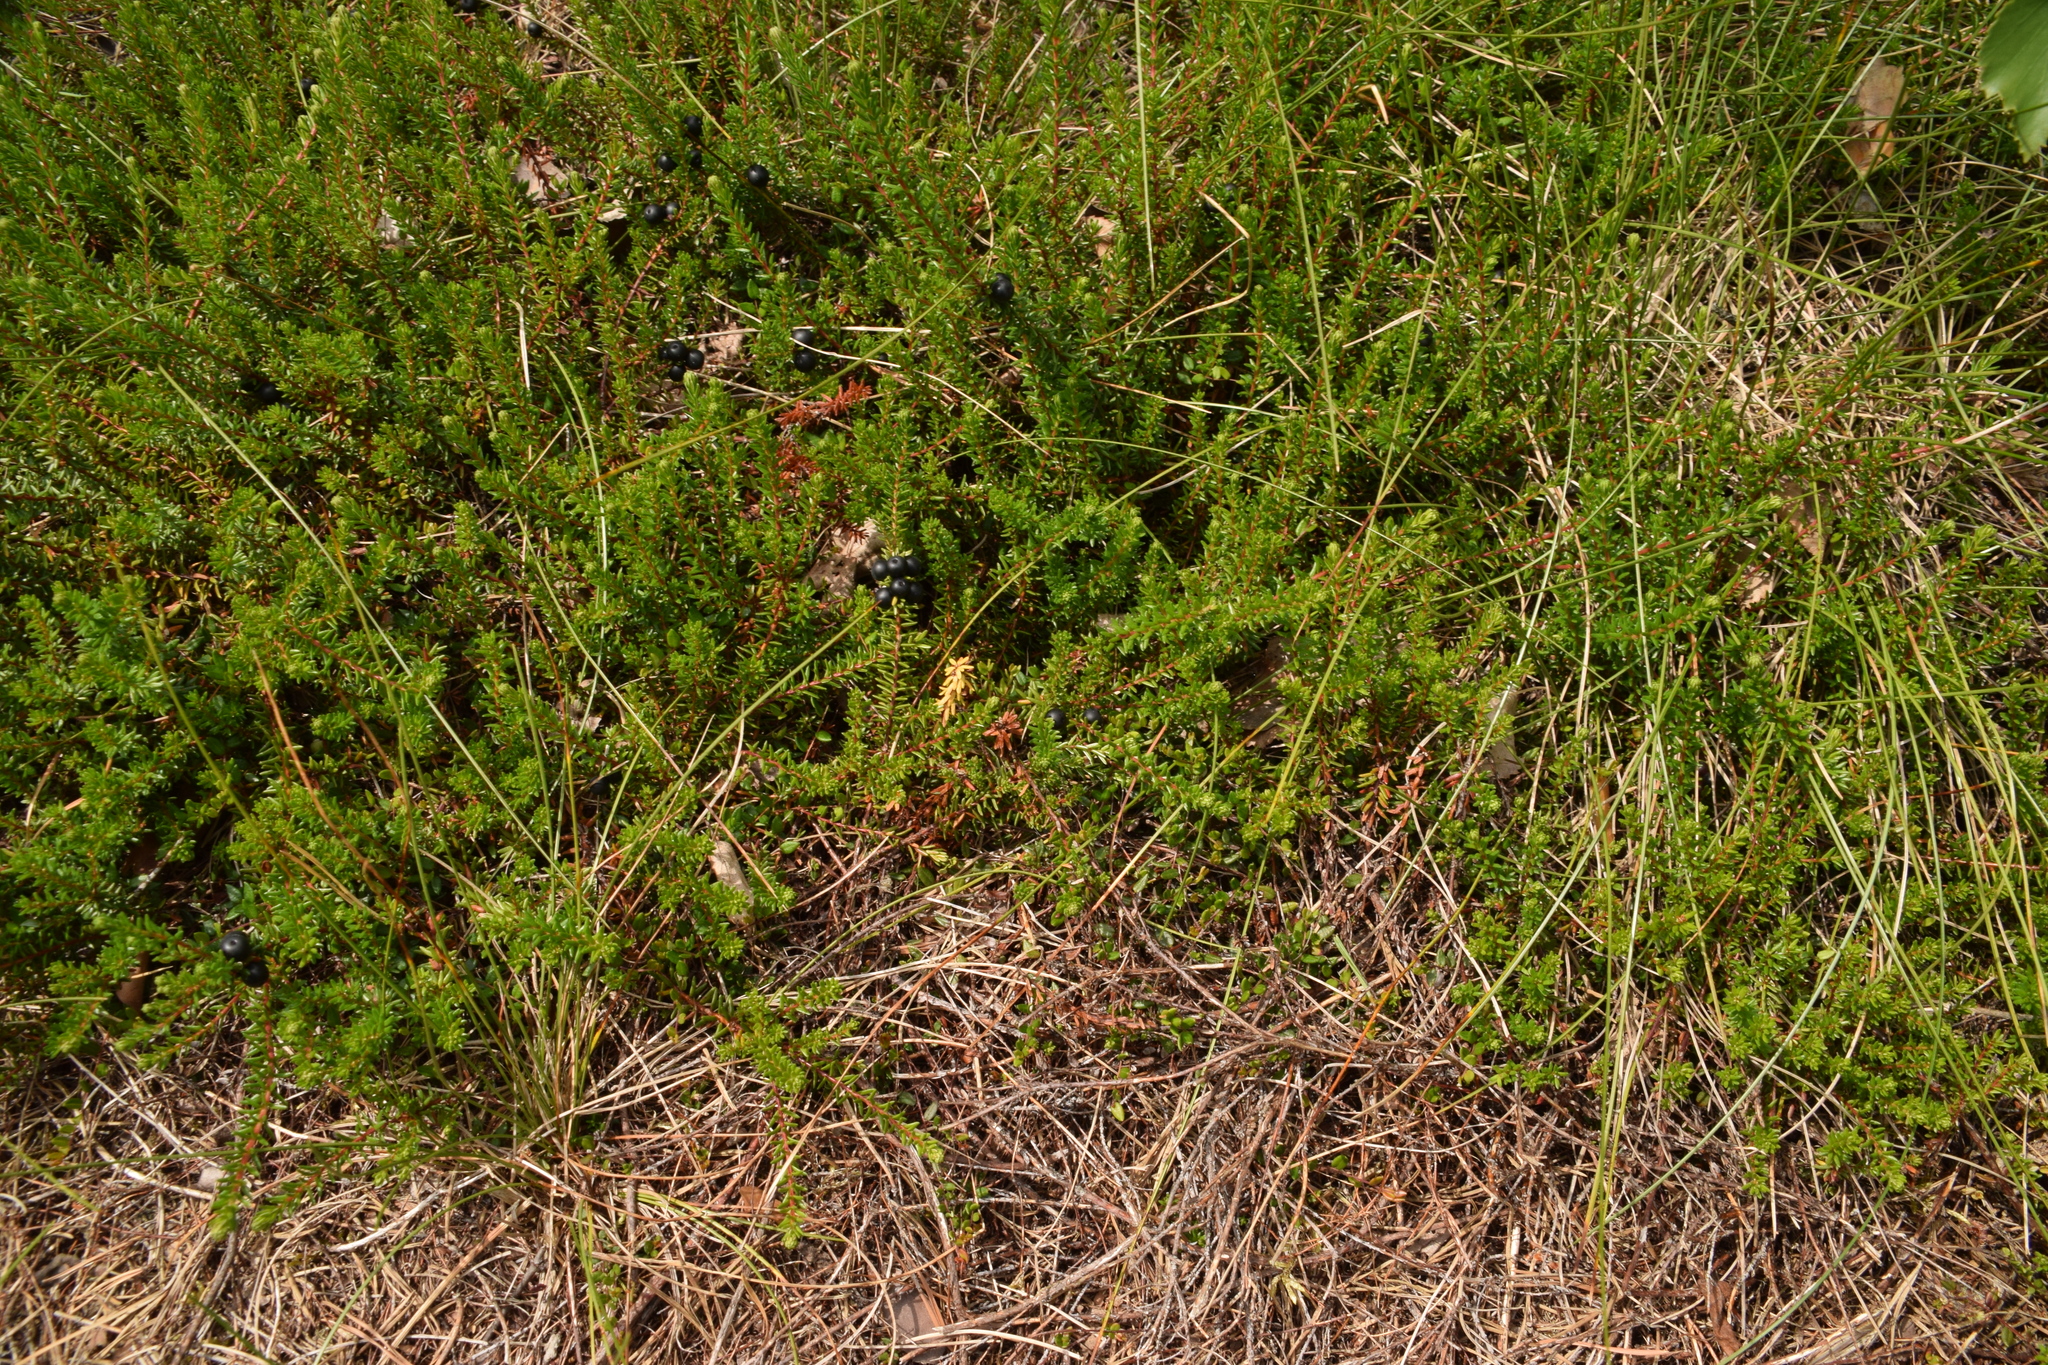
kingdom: Plantae
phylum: Tracheophyta
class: Magnoliopsida
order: Ericales
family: Ericaceae
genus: Empetrum
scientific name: Empetrum nigrum
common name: Black crowberry
